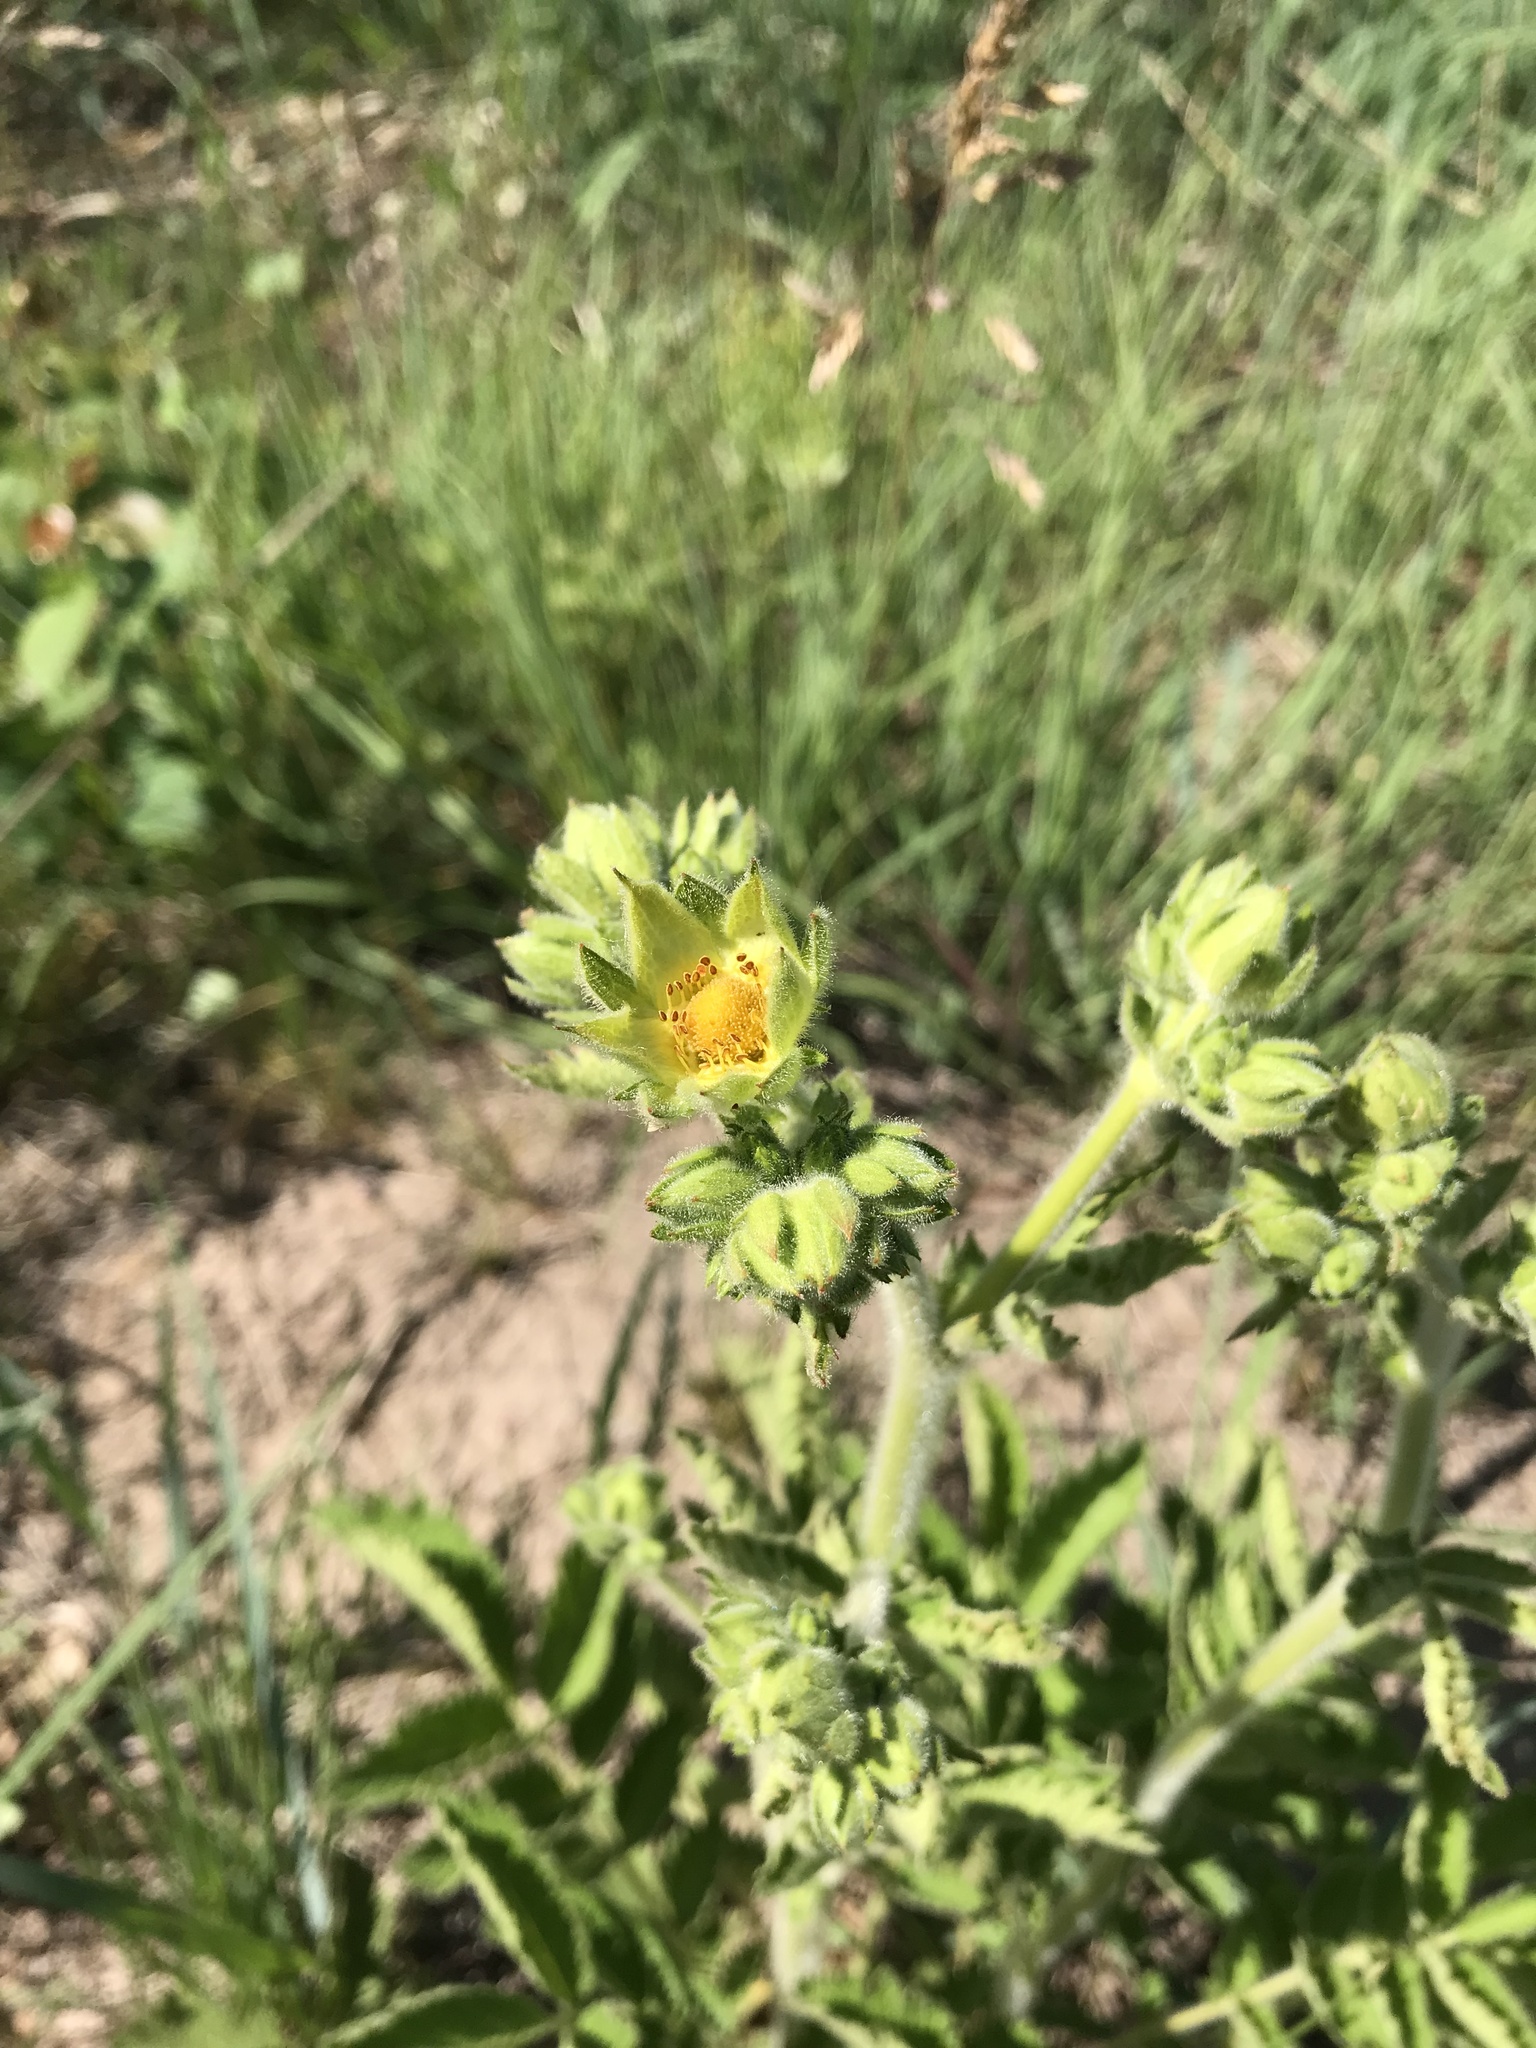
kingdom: Plantae
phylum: Tracheophyta
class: Magnoliopsida
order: Rosales
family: Rosaceae
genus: Drymocallis
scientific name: Drymocallis arguta
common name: Tall cinquefoil
